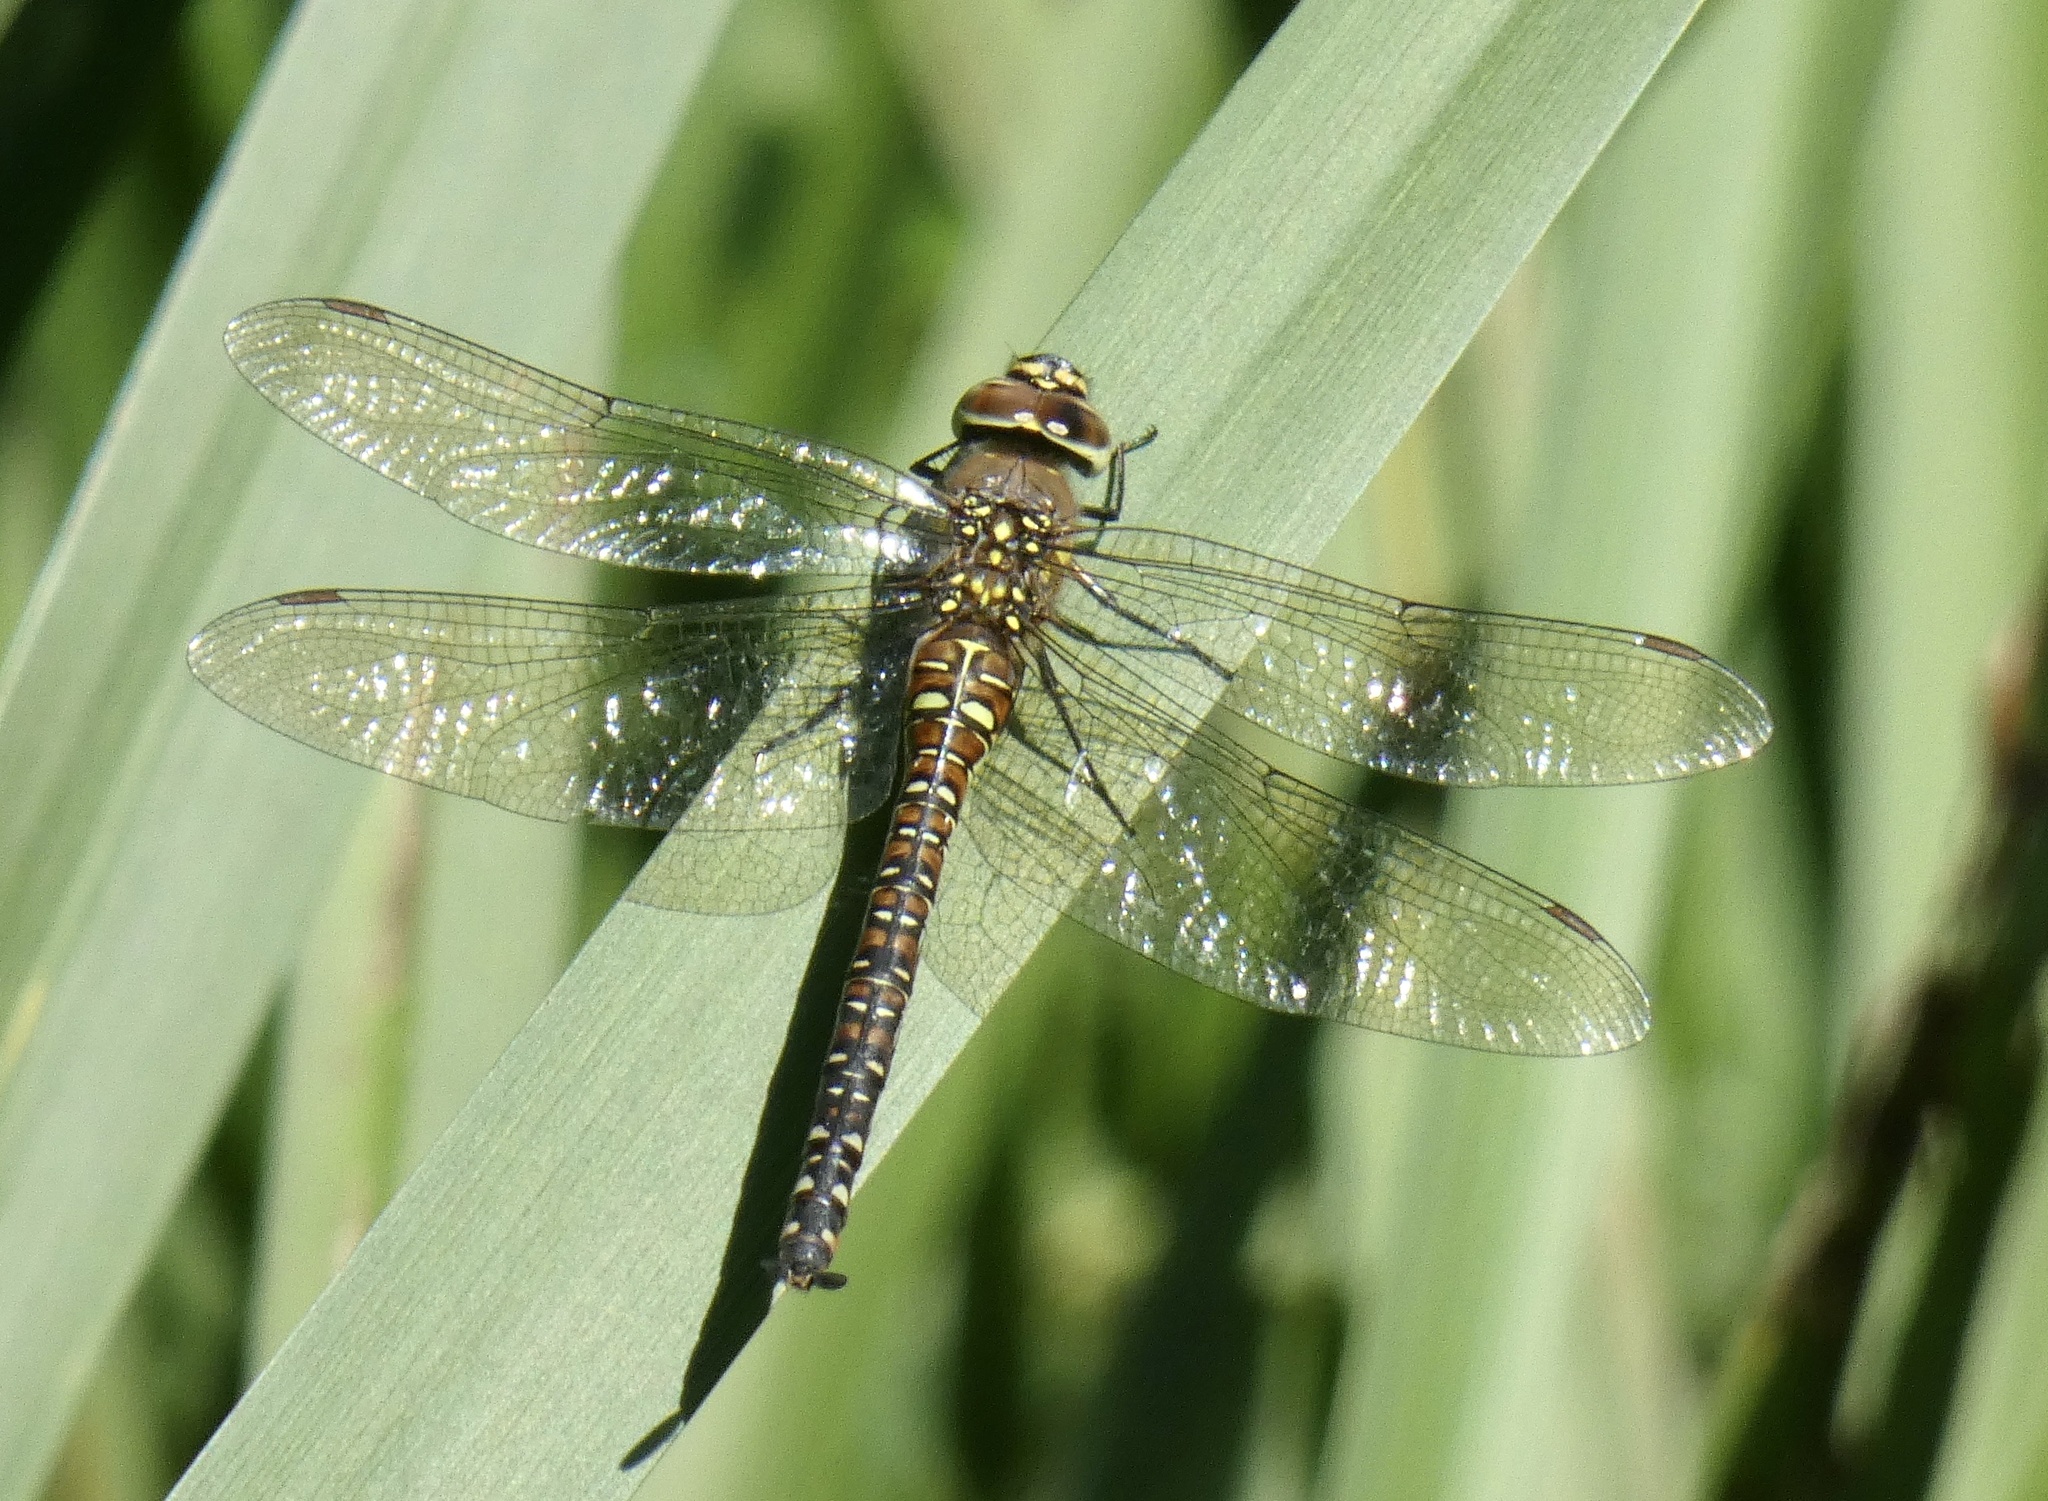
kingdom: Animalia
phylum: Arthropoda
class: Insecta
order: Odonata
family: Aeshnidae
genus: Aeshna
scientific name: Aeshna mixta
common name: Migrant hawker
